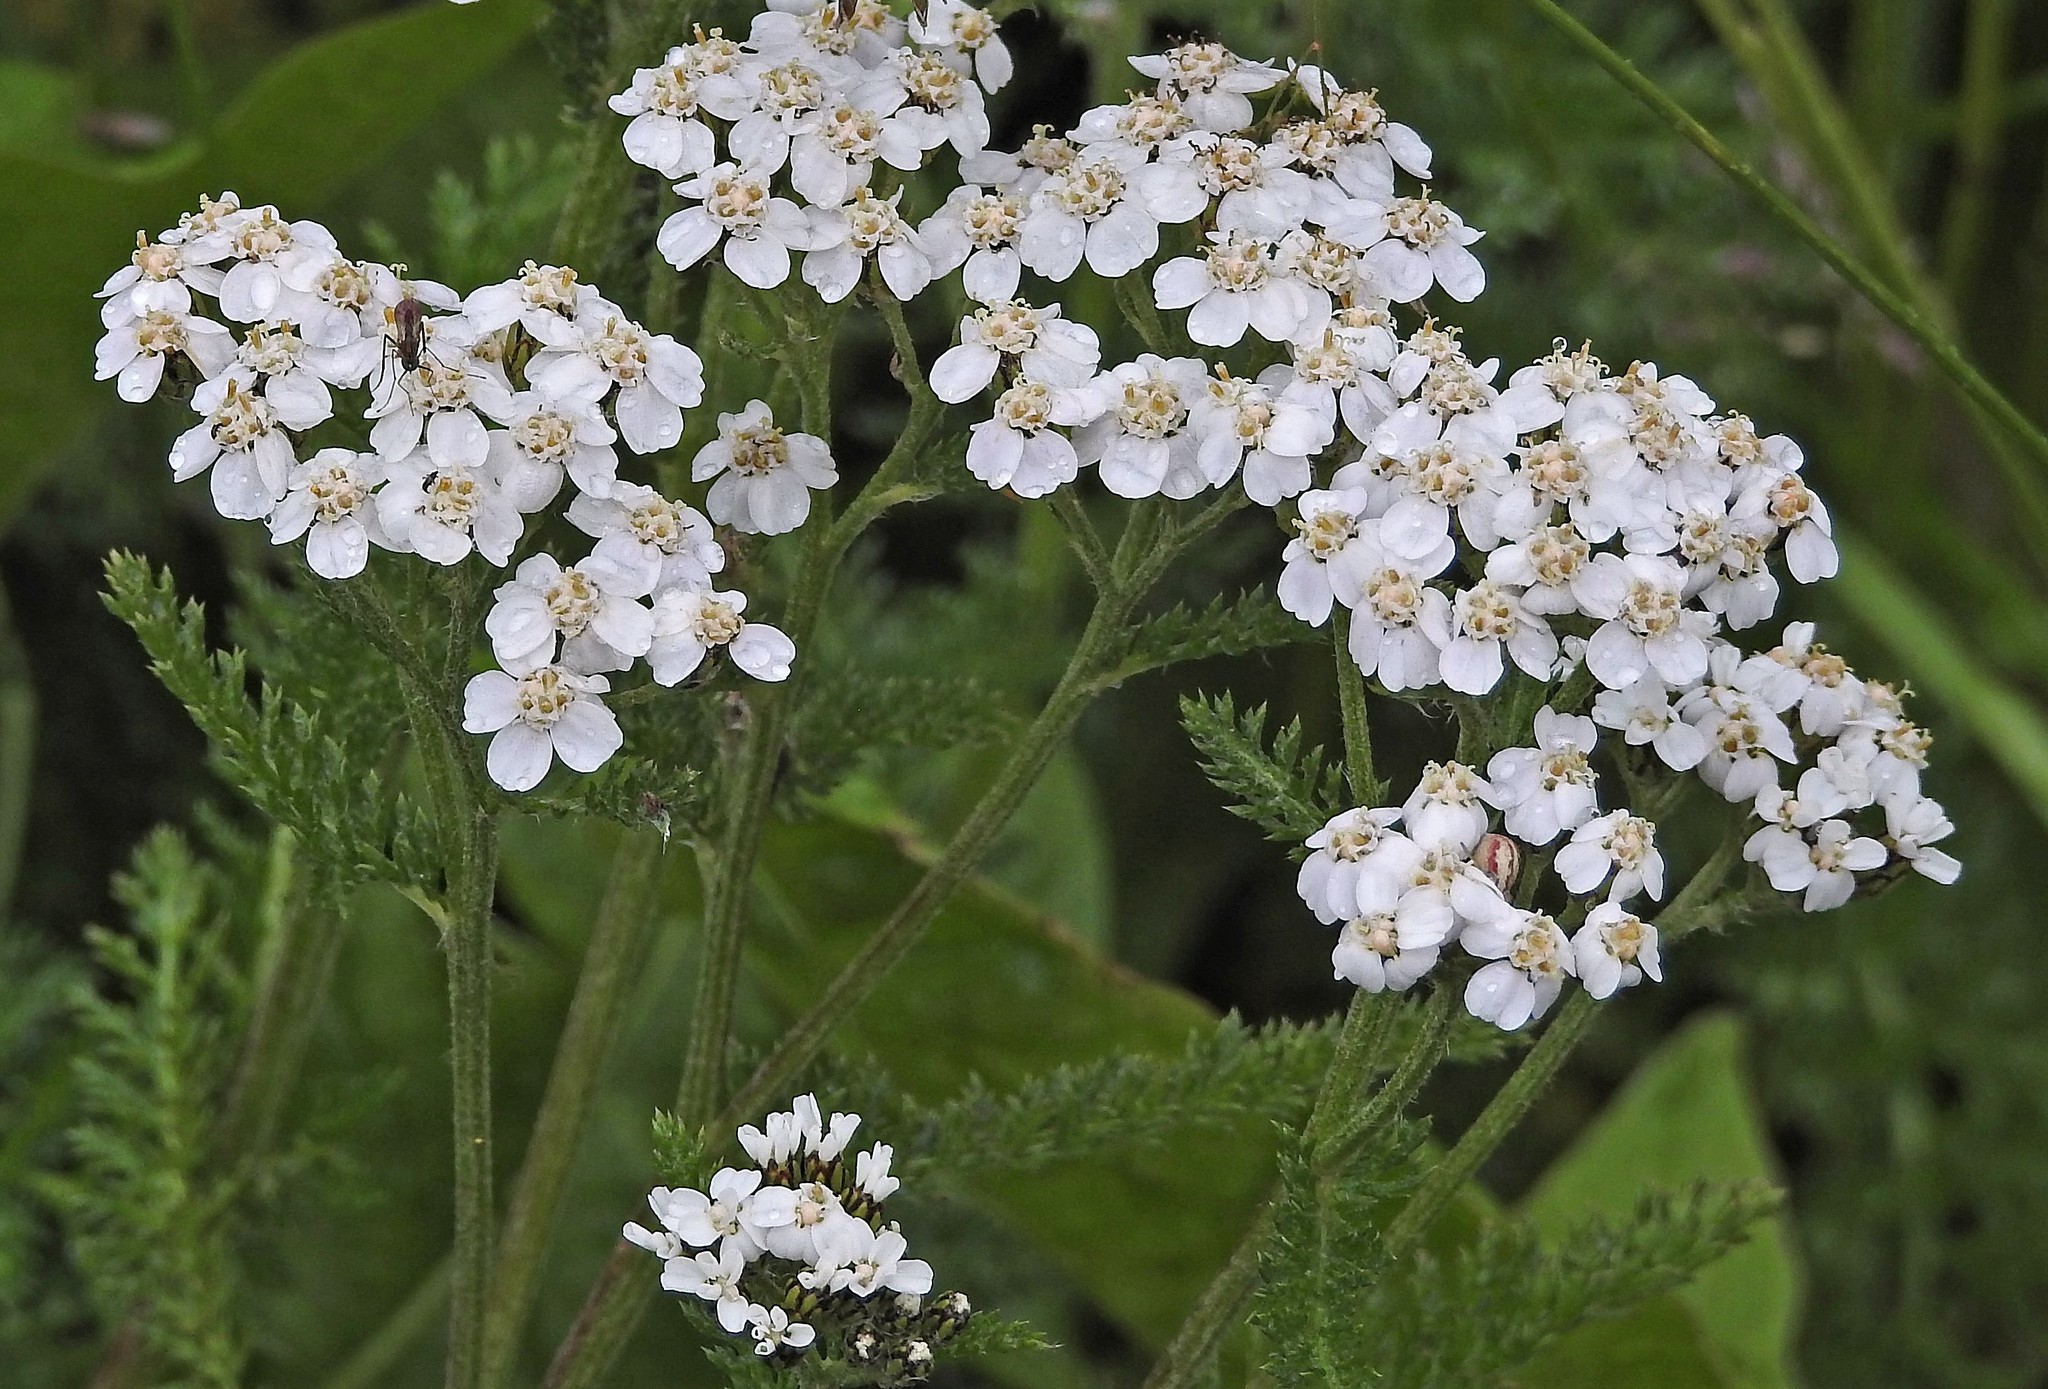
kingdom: Plantae
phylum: Tracheophyta
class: Magnoliopsida
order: Asterales
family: Asteraceae
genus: Achillea
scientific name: Achillea millefolium
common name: Yarrow
